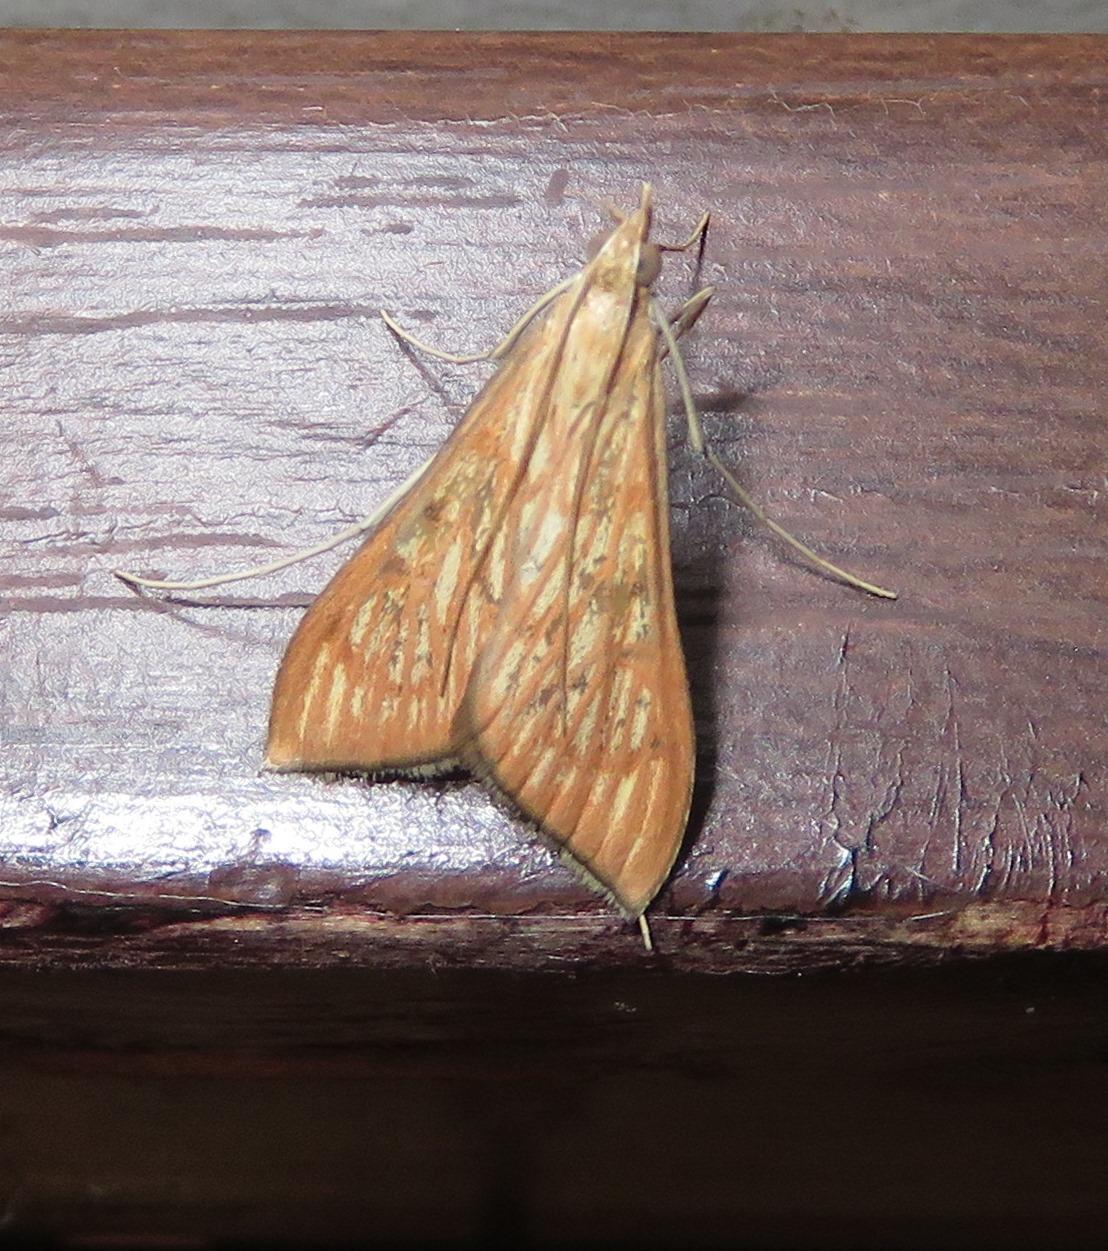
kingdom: Animalia
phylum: Arthropoda
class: Insecta
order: Lepidoptera
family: Crambidae
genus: Antigastra
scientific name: Antigastra catalaunalis
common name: Spanish dot
